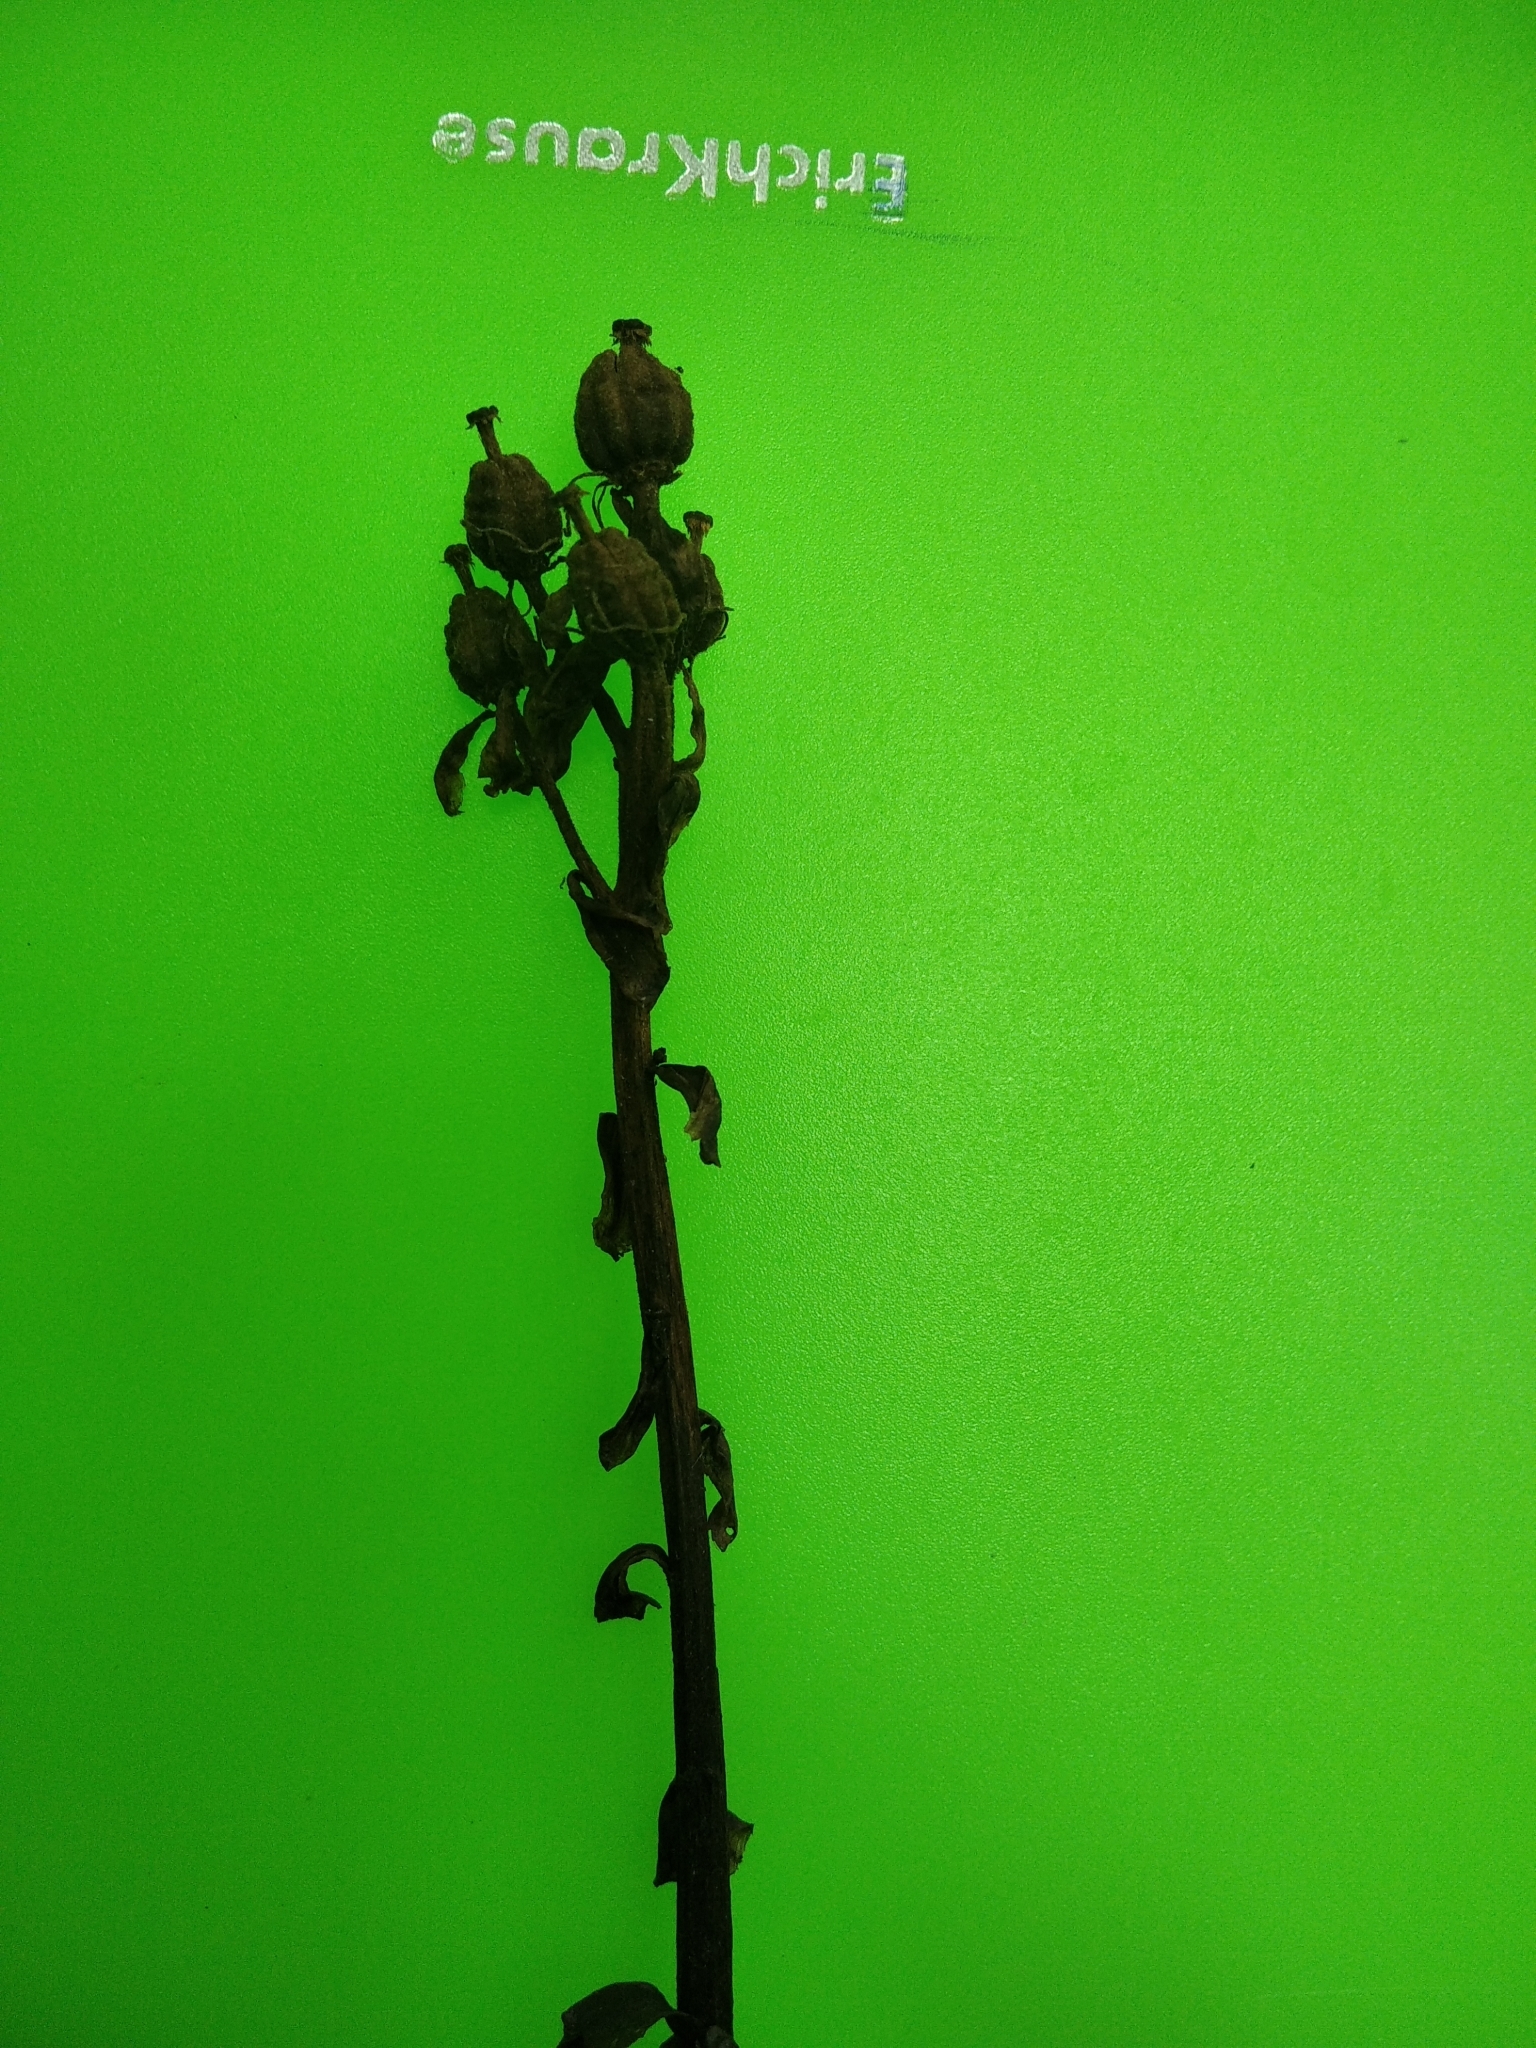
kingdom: Plantae
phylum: Tracheophyta
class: Magnoliopsida
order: Ericales
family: Ericaceae
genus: Hypopitys
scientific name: Hypopitys monotropa
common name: Yellow bird's-nest
